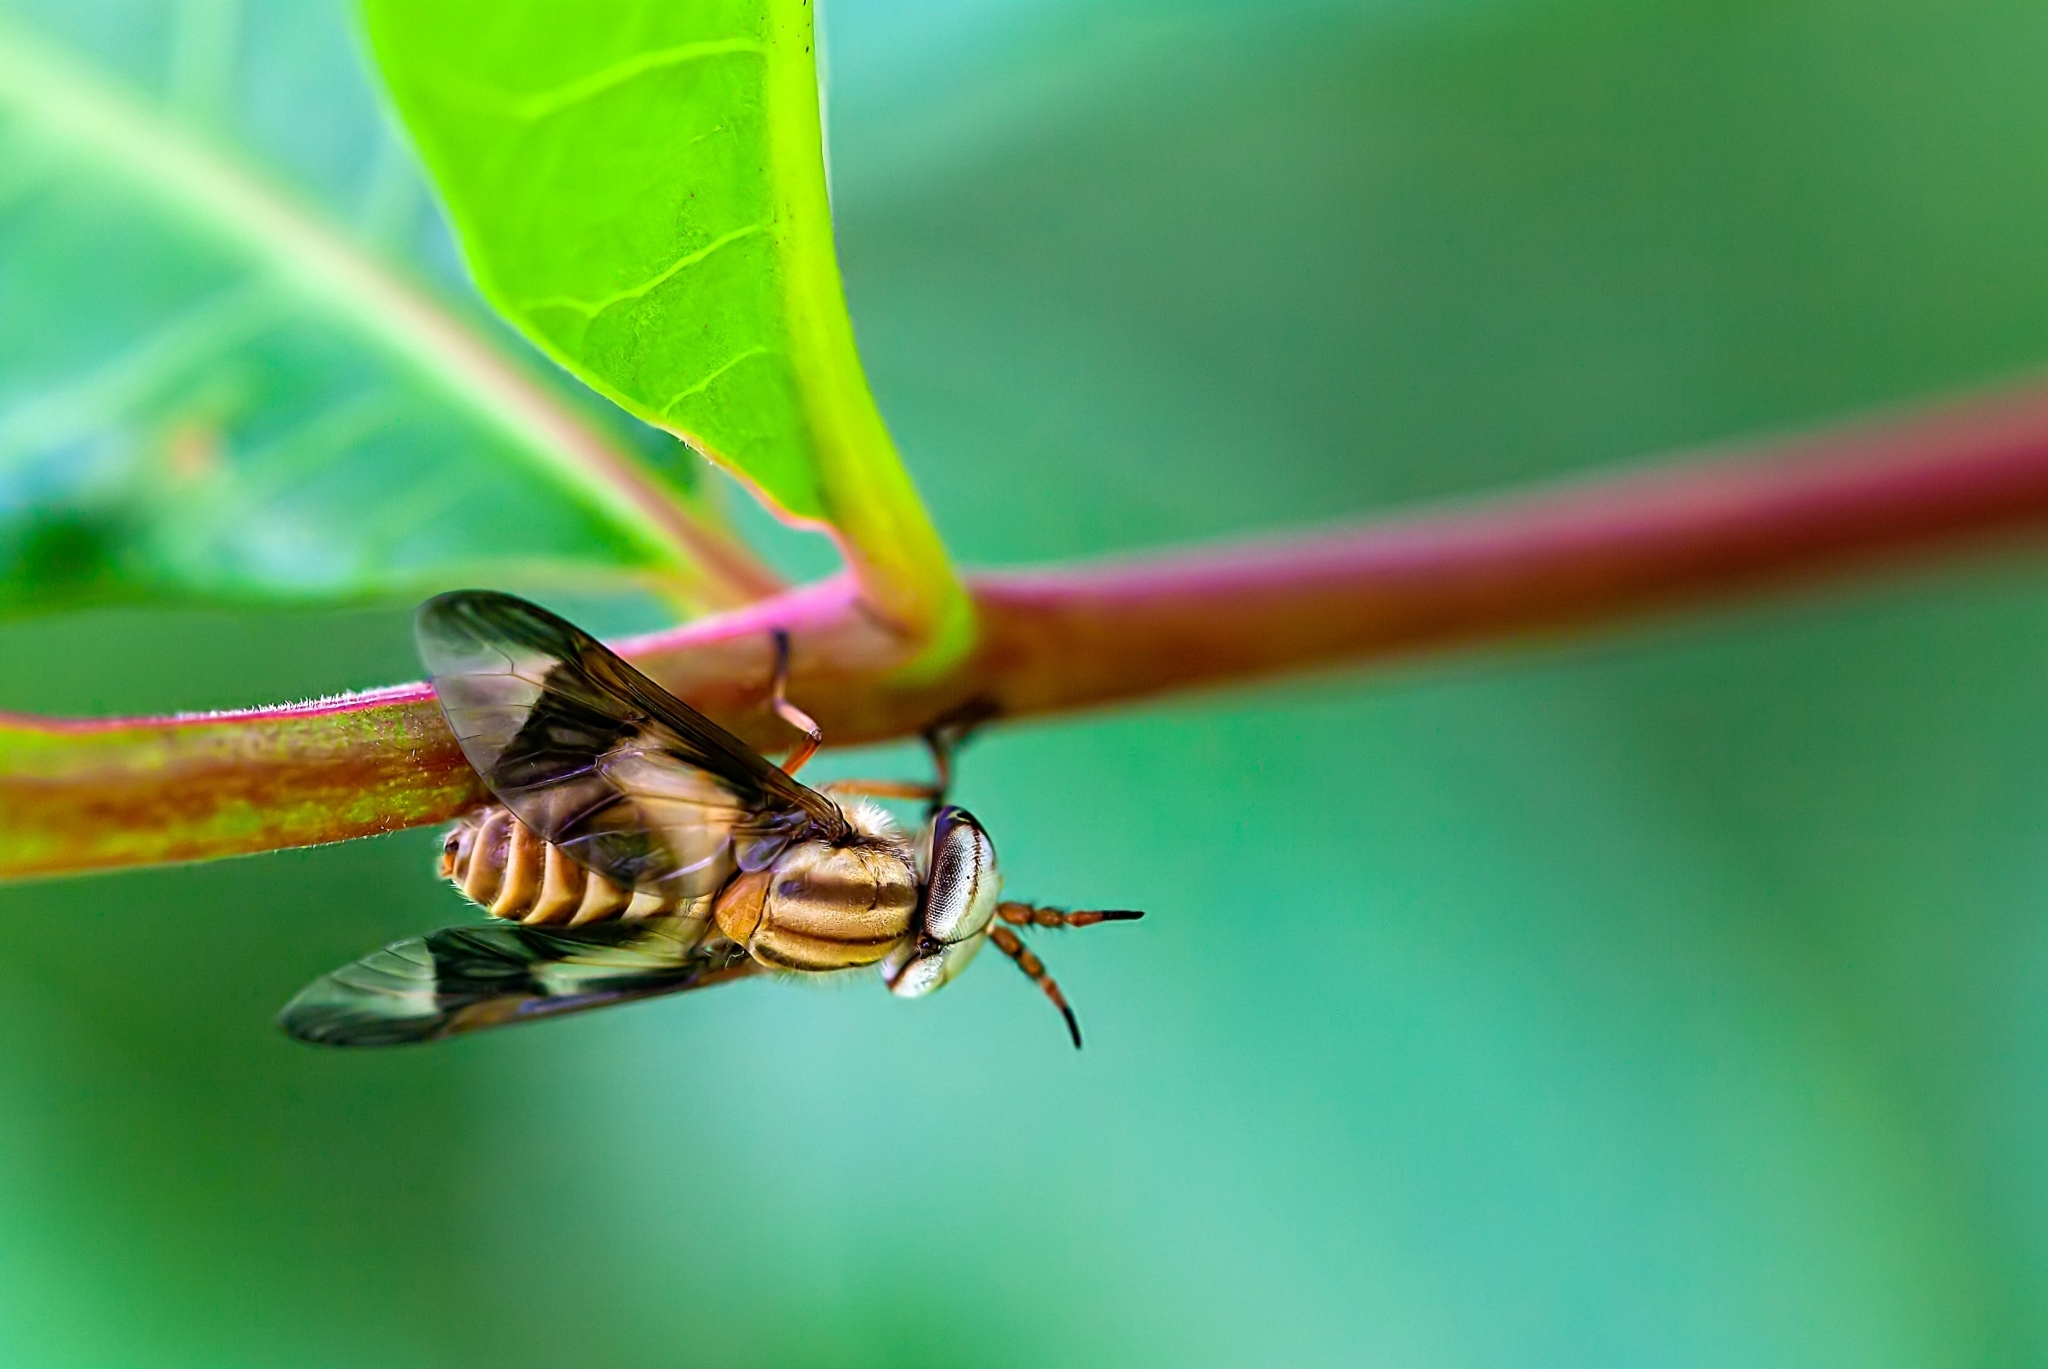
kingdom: Animalia
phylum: Arthropoda
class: Insecta
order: Diptera
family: Tabanidae
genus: Chrysops
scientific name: Chrysops flavidus
